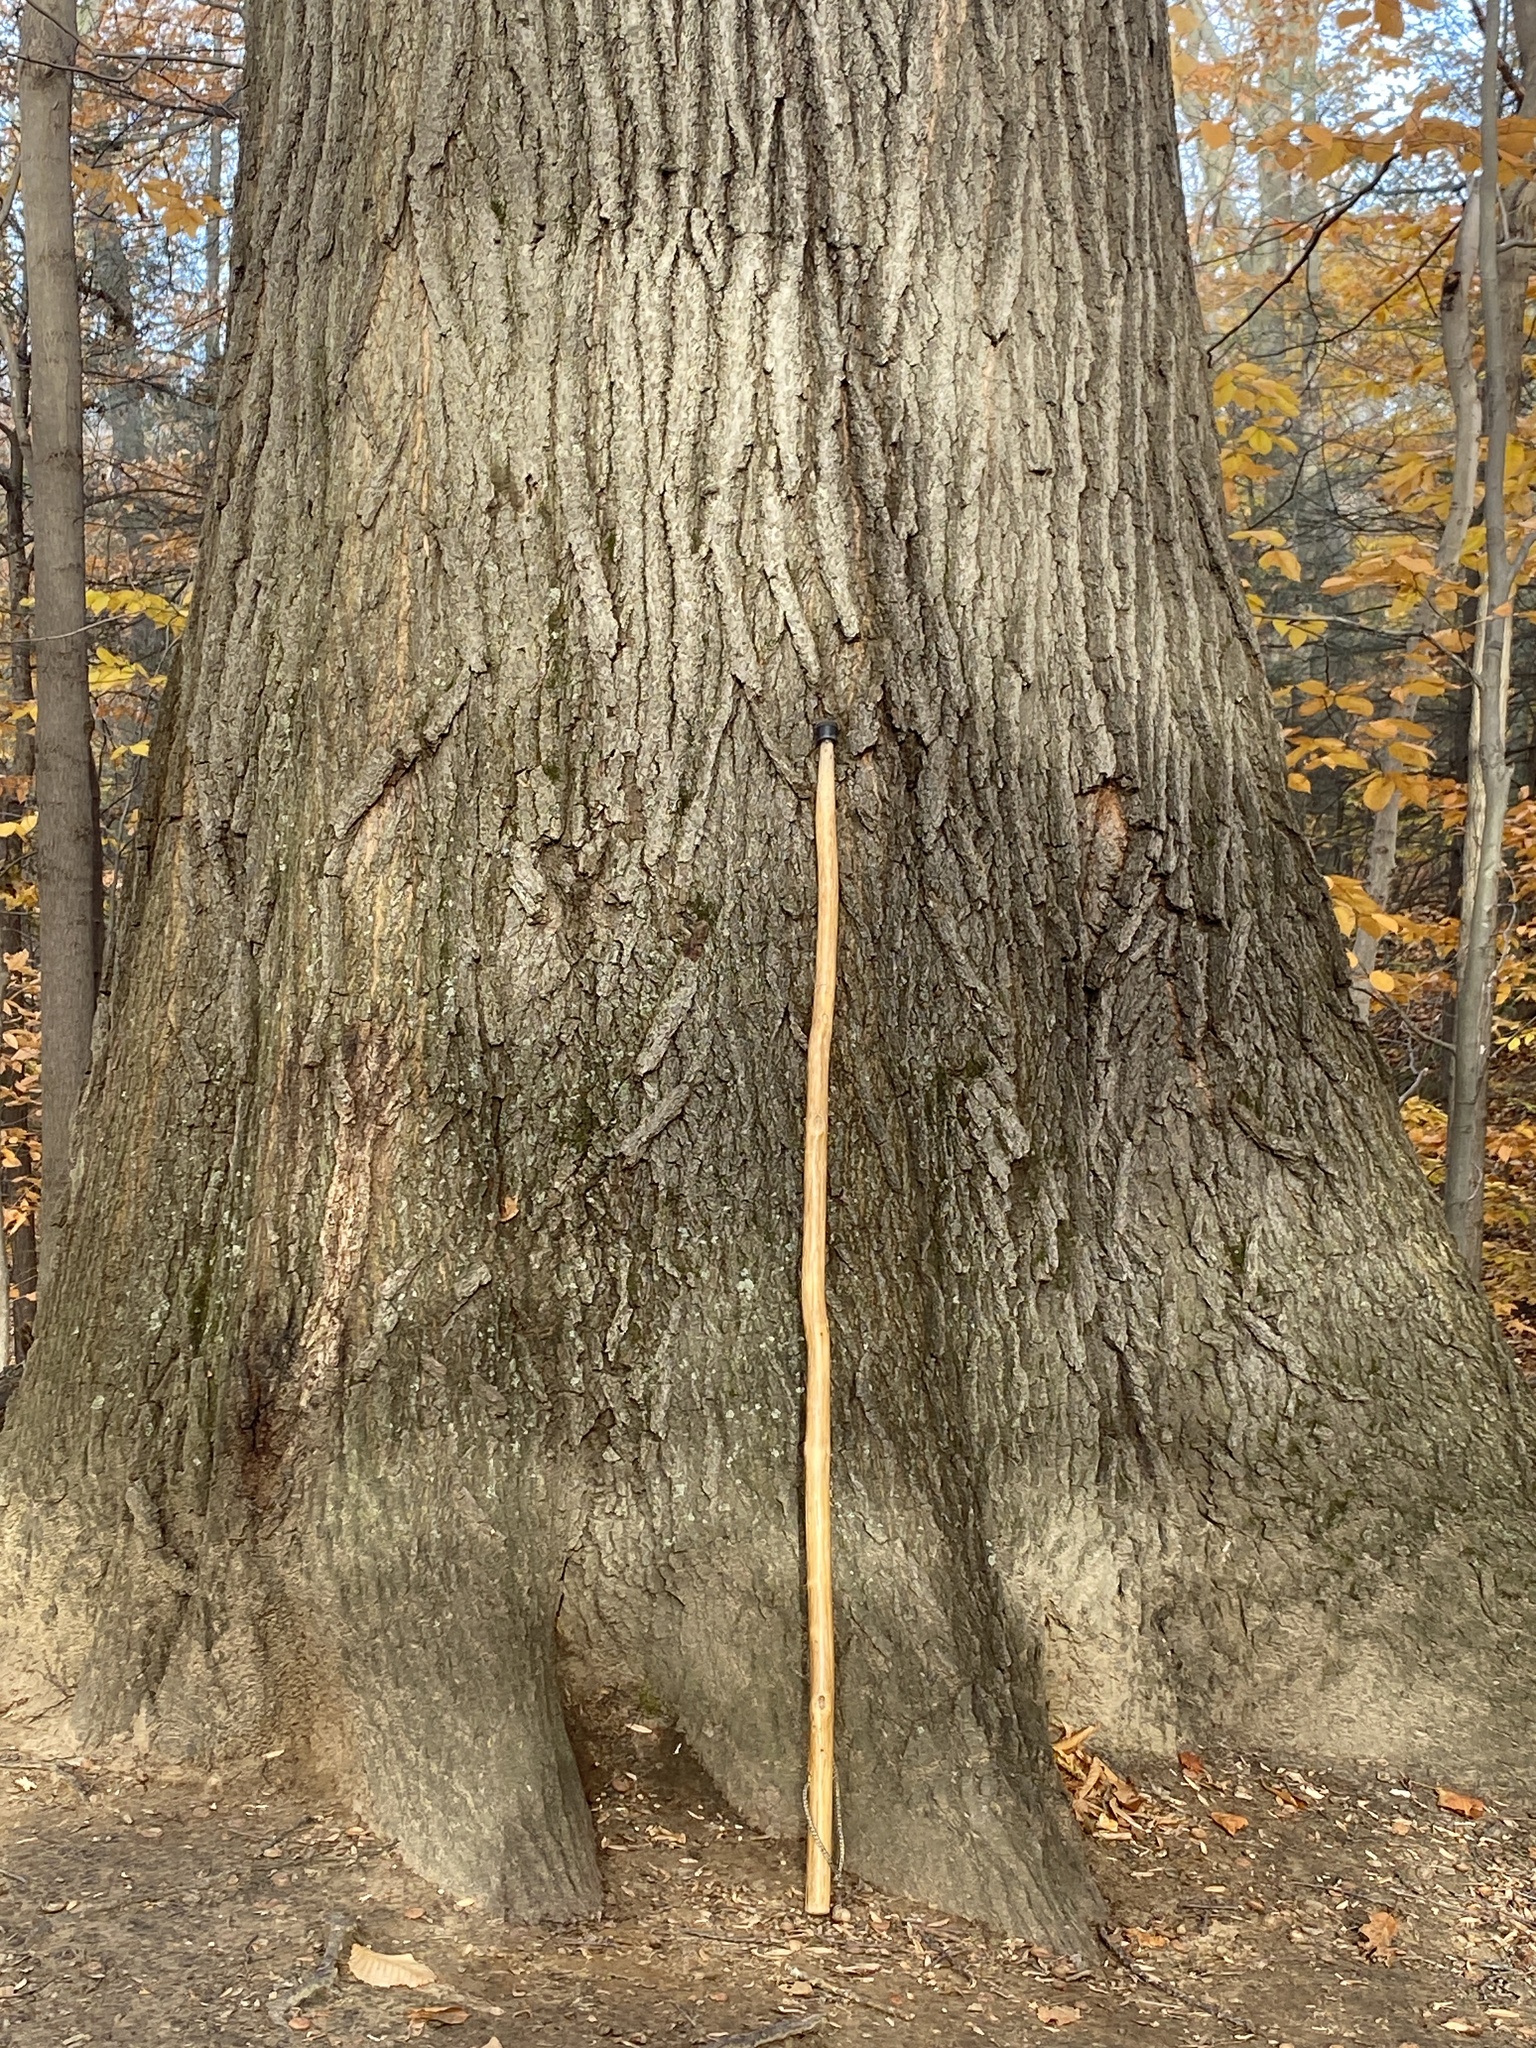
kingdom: Plantae
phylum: Tracheophyta
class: Magnoliopsida
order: Fagales
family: Fagaceae
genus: Quercus
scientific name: Quercus rubra
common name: Red oak
